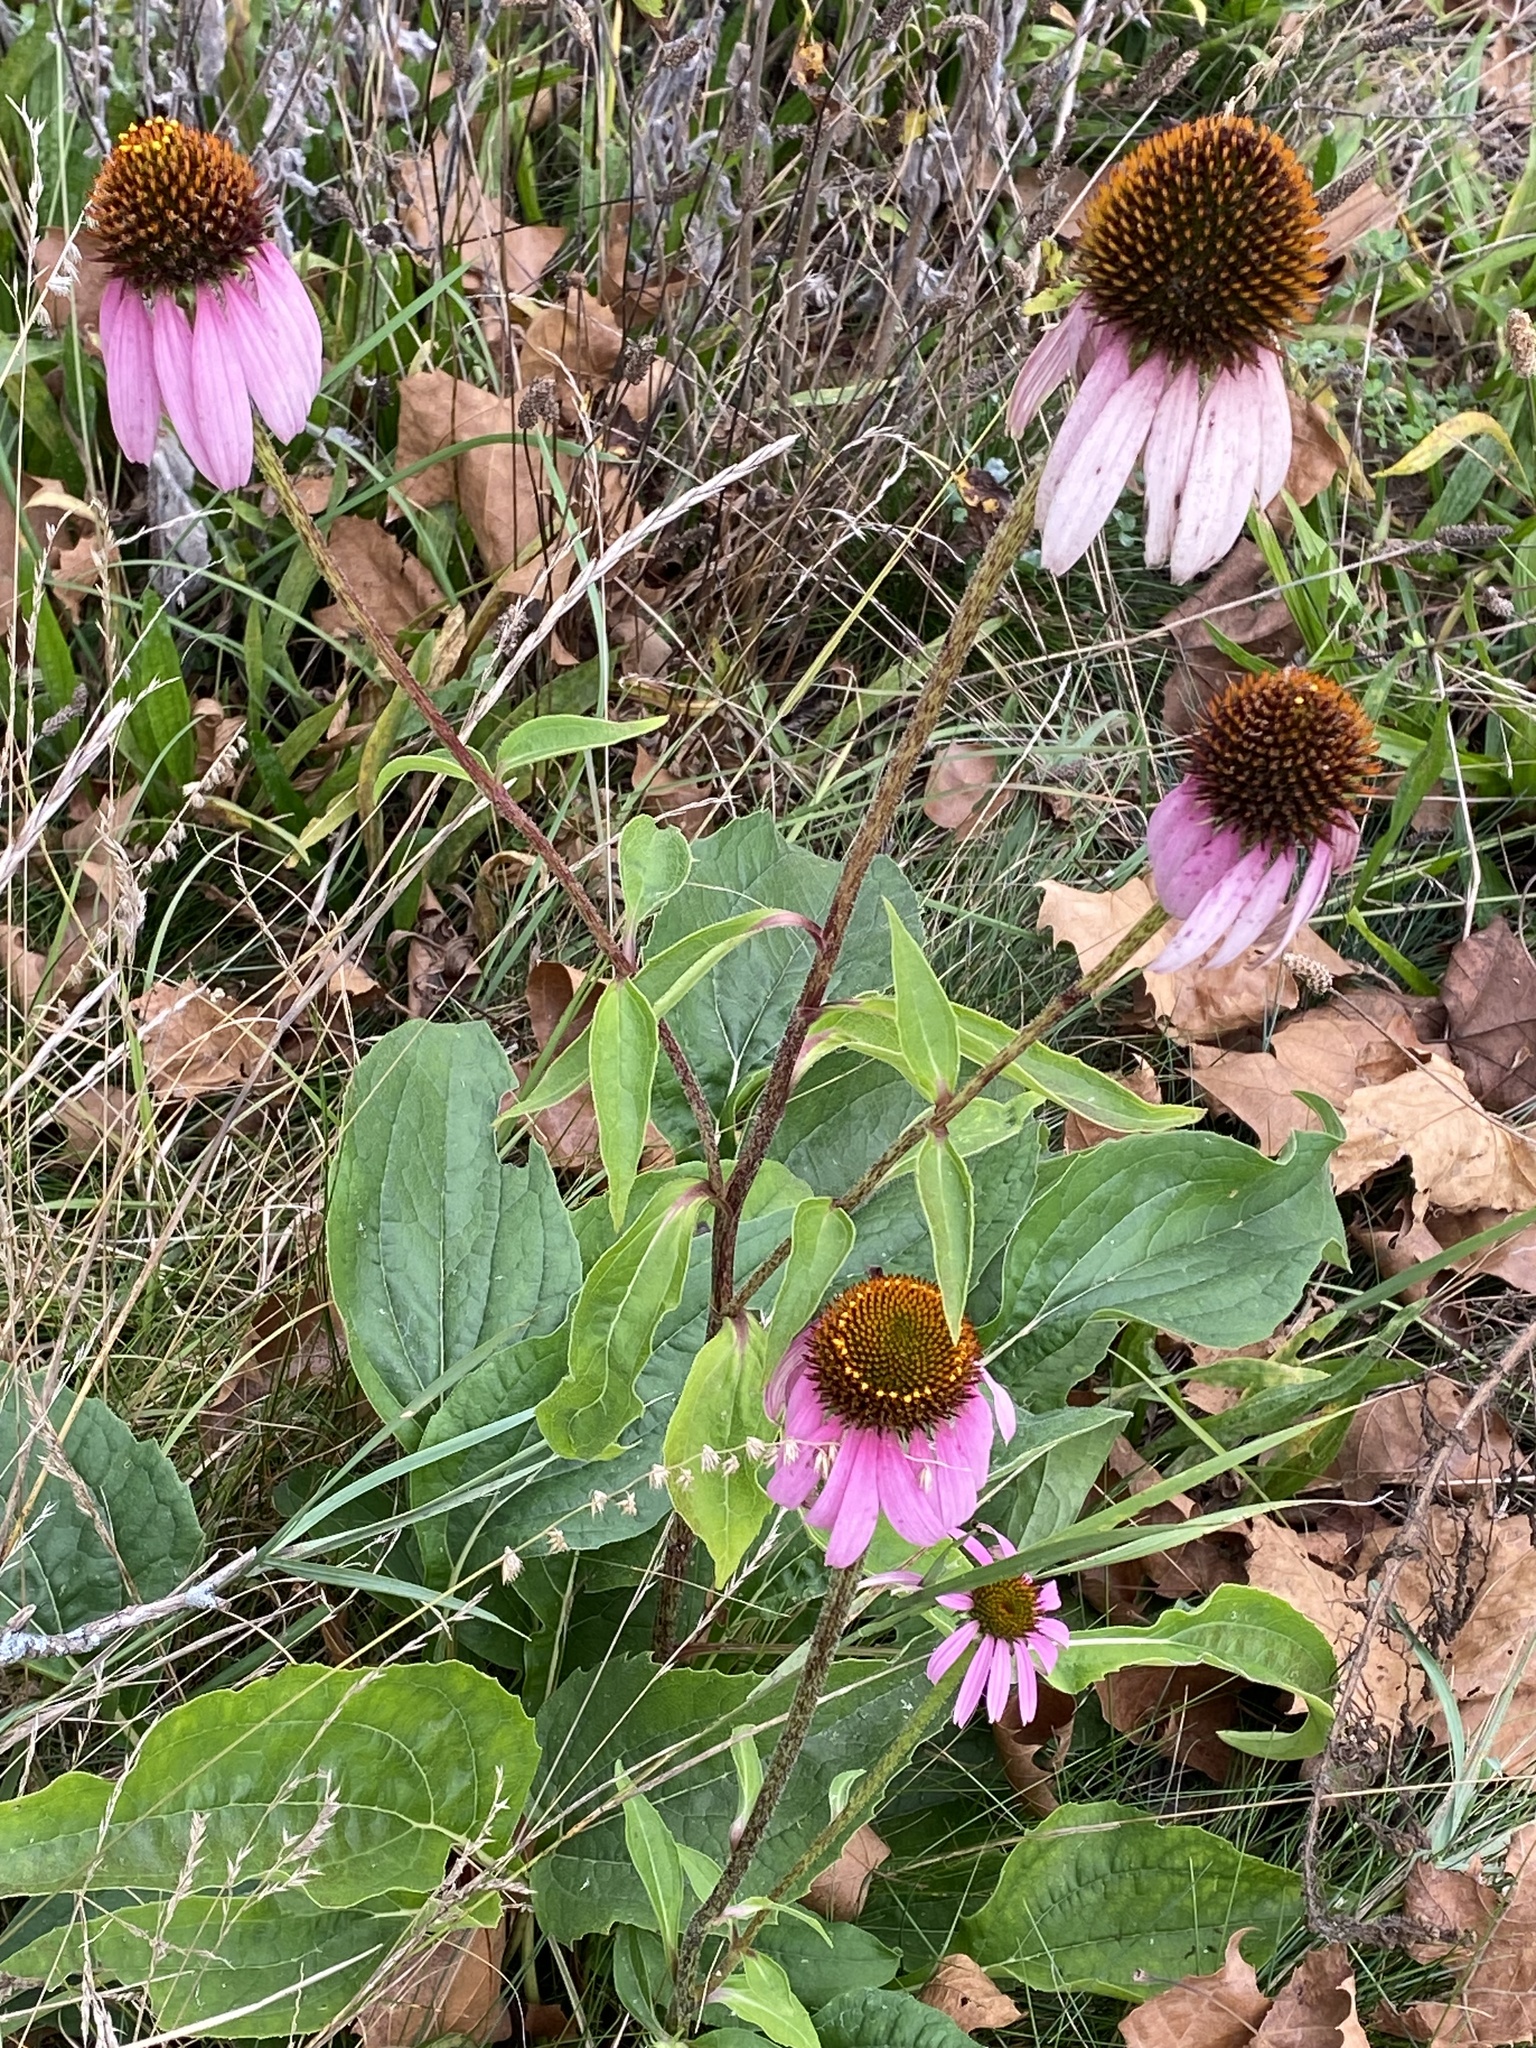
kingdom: Plantae
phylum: Tracheophyta
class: Magnoliopsida
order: Asterales
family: Asteraceae
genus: Echinacea
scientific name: Echinacea purpurea
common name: Broad-leaved purple coneflower
